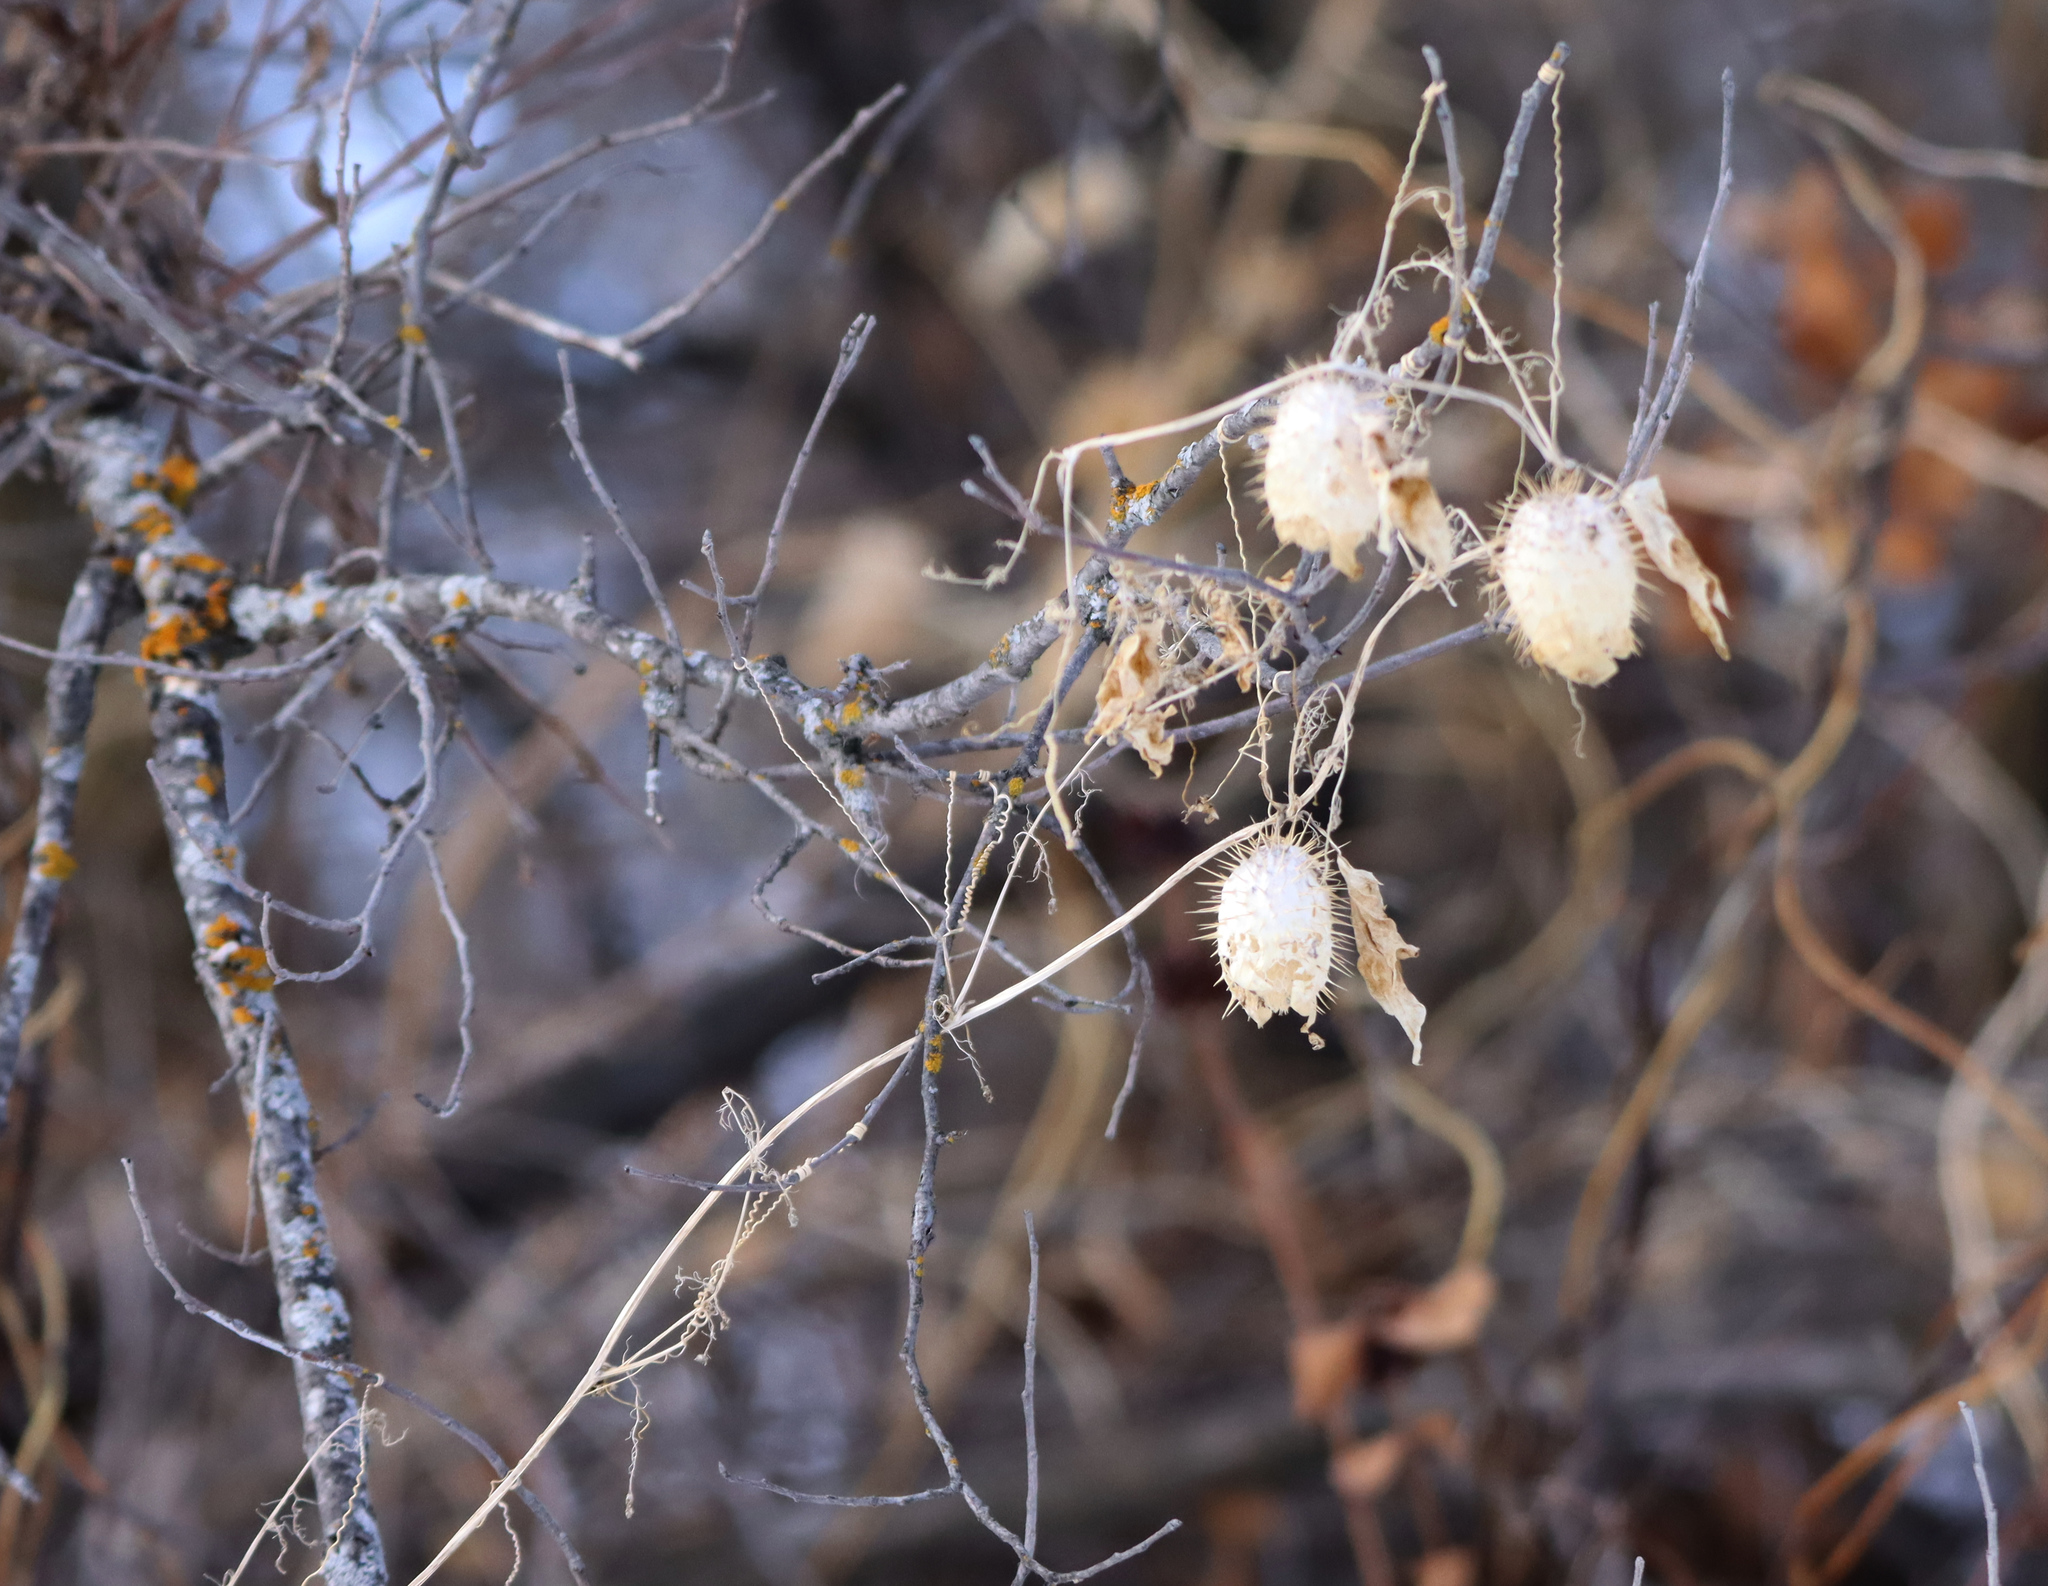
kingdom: Plantae
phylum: Tracheophyta
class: Magnoliopsida
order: Cucurbitales
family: Cucurbitaceae
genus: Echinocystis
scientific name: Echinocystis lobata
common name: Wild cucumber
